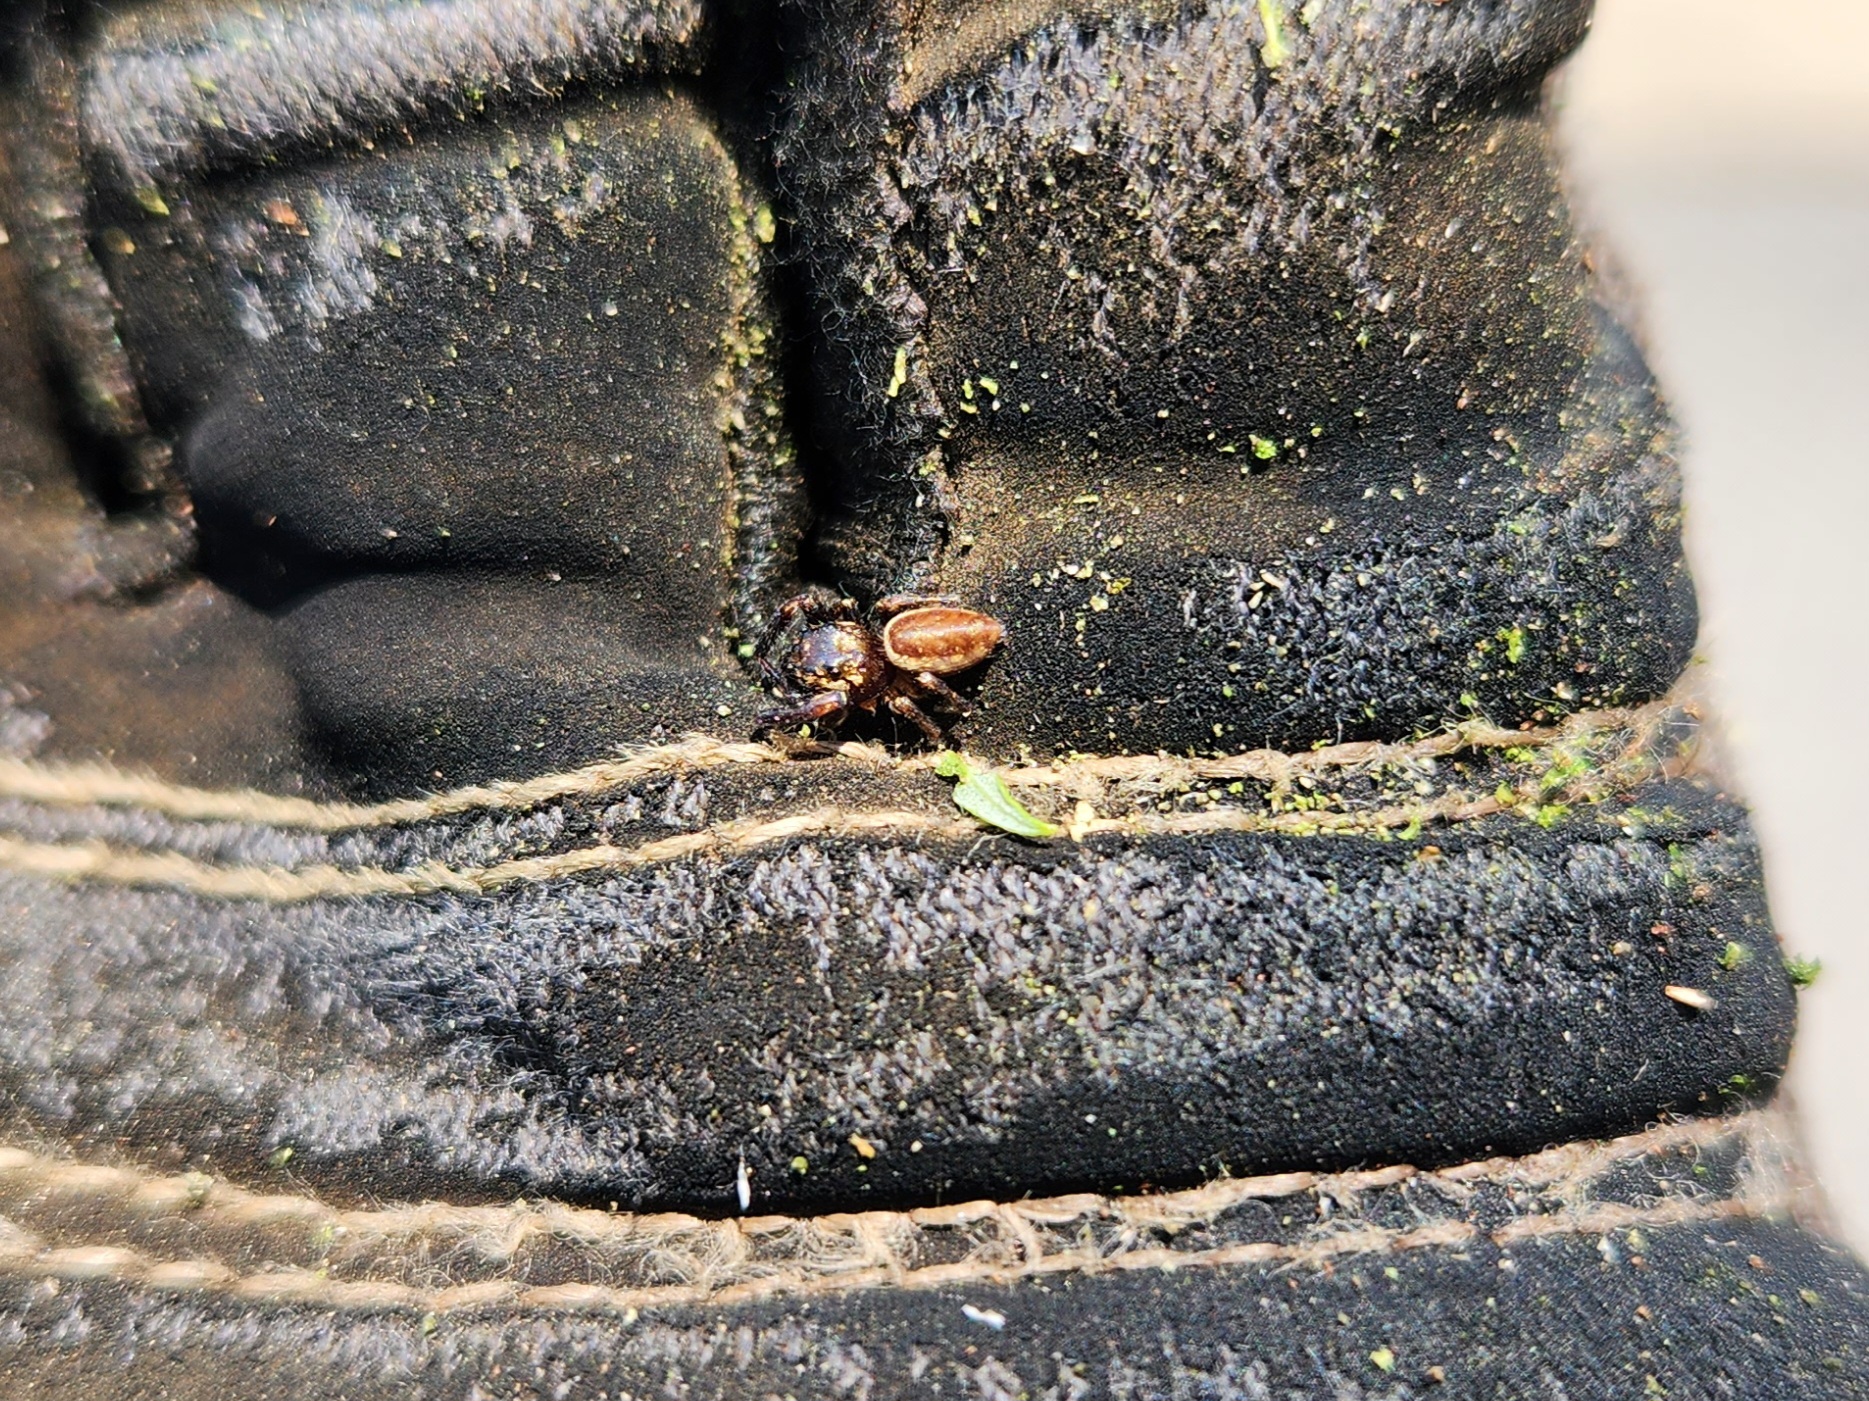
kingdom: Animalia
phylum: Arthropoda
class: Arachnida
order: Araneae
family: Salticidae
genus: Eris
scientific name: Eris militaris
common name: Bronze jumper
